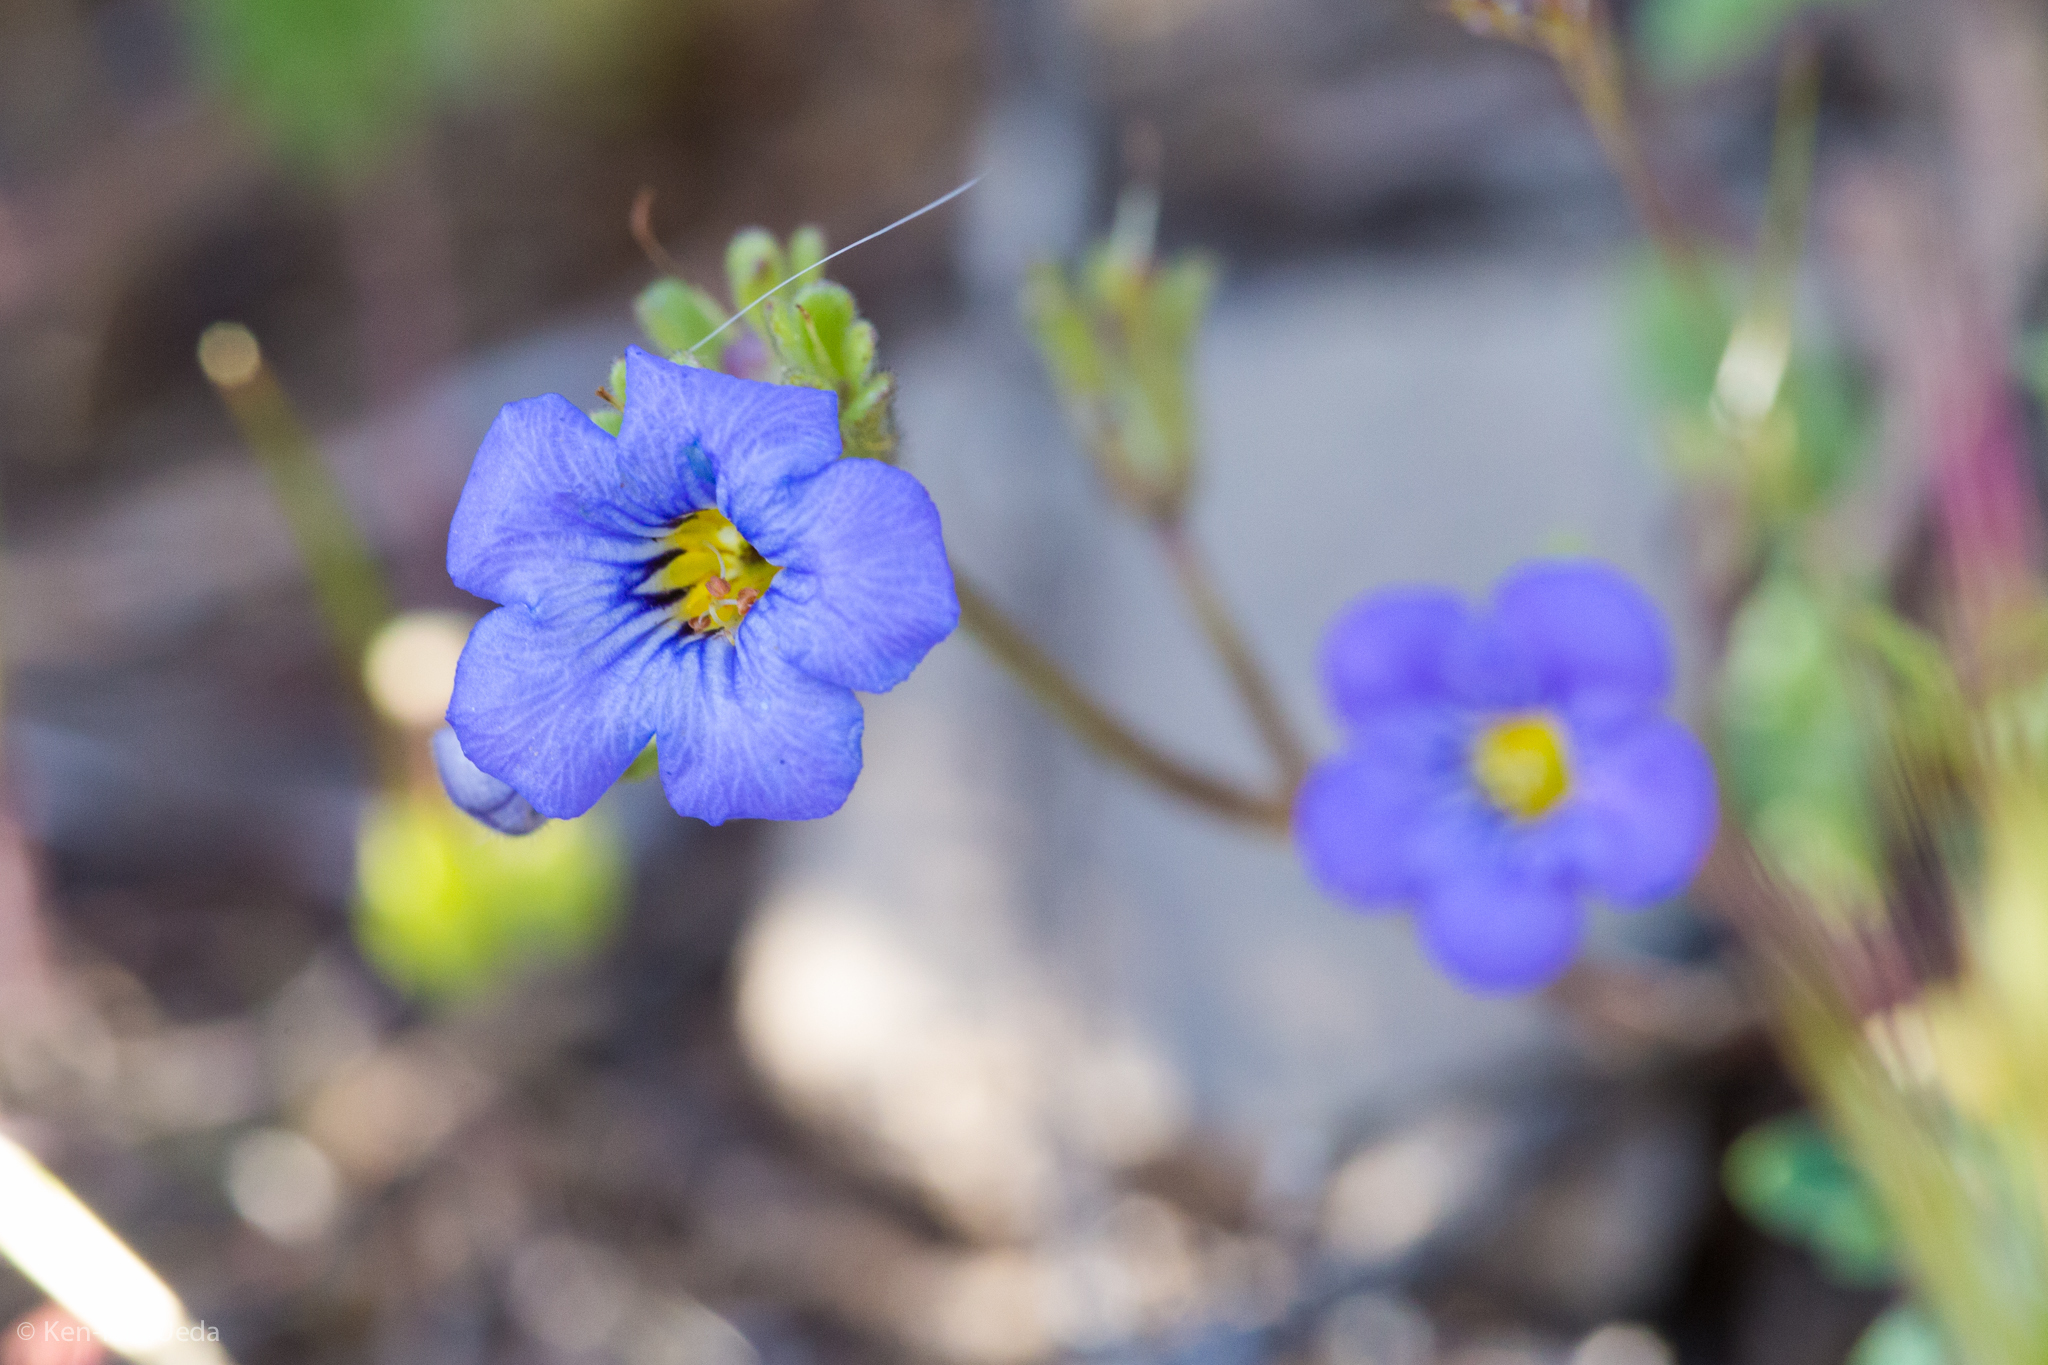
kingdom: Plantae
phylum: Tracheophyta
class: Magnoliopsida
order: Boraginales
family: Hydrophyllaceae
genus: Phacelia
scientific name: Phacelia fremontii
